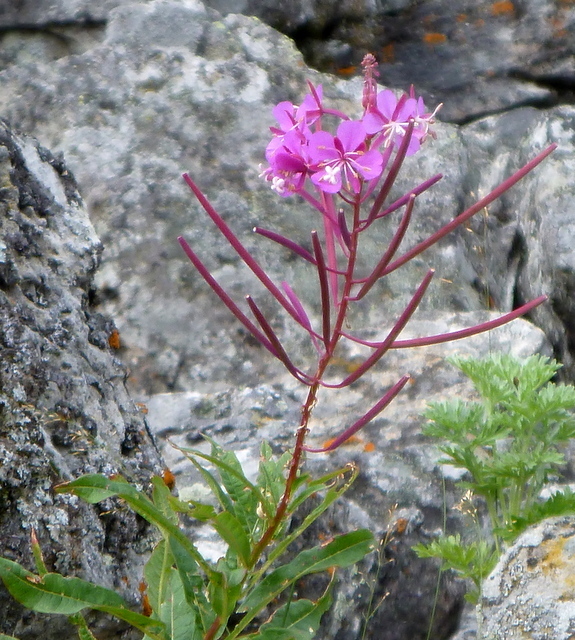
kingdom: Plantae
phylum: Tracheophyta
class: Magnoliopsida
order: Myrtales
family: Onagraceae
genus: Chamaenerion
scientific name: Chamaenerion angustifolium
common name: Fireweed
